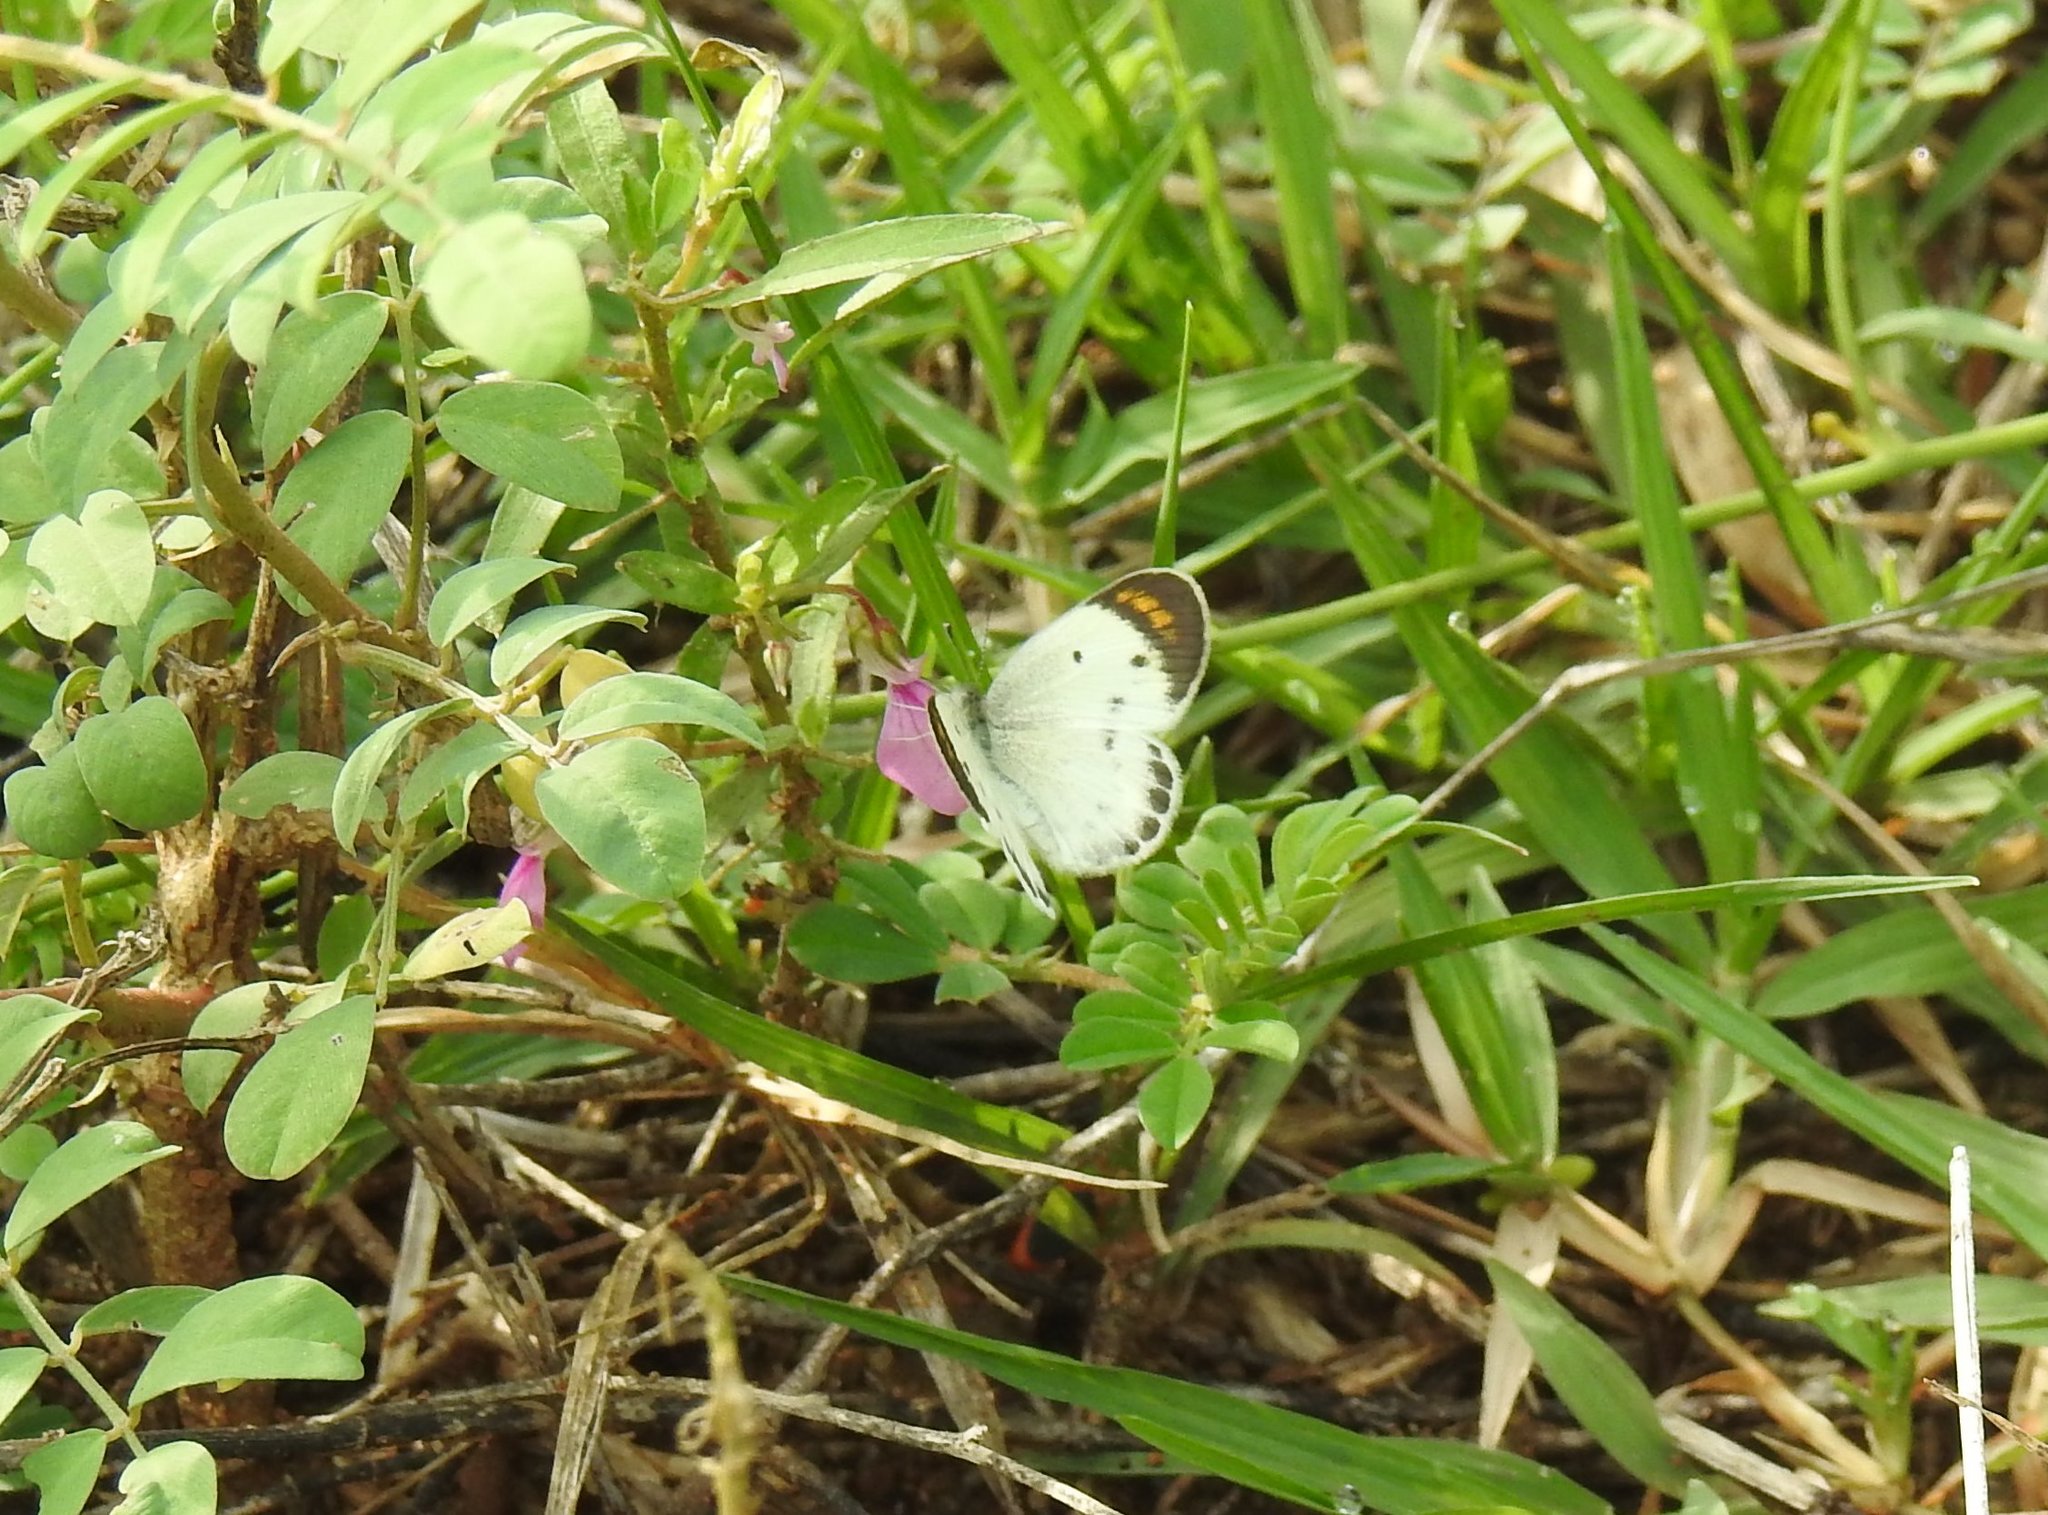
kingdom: Animalia
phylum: Arthropoda
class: Insecta
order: Lepidoptera
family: Pieridae
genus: Colotis
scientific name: Colotis etrida
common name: Little orange tip
